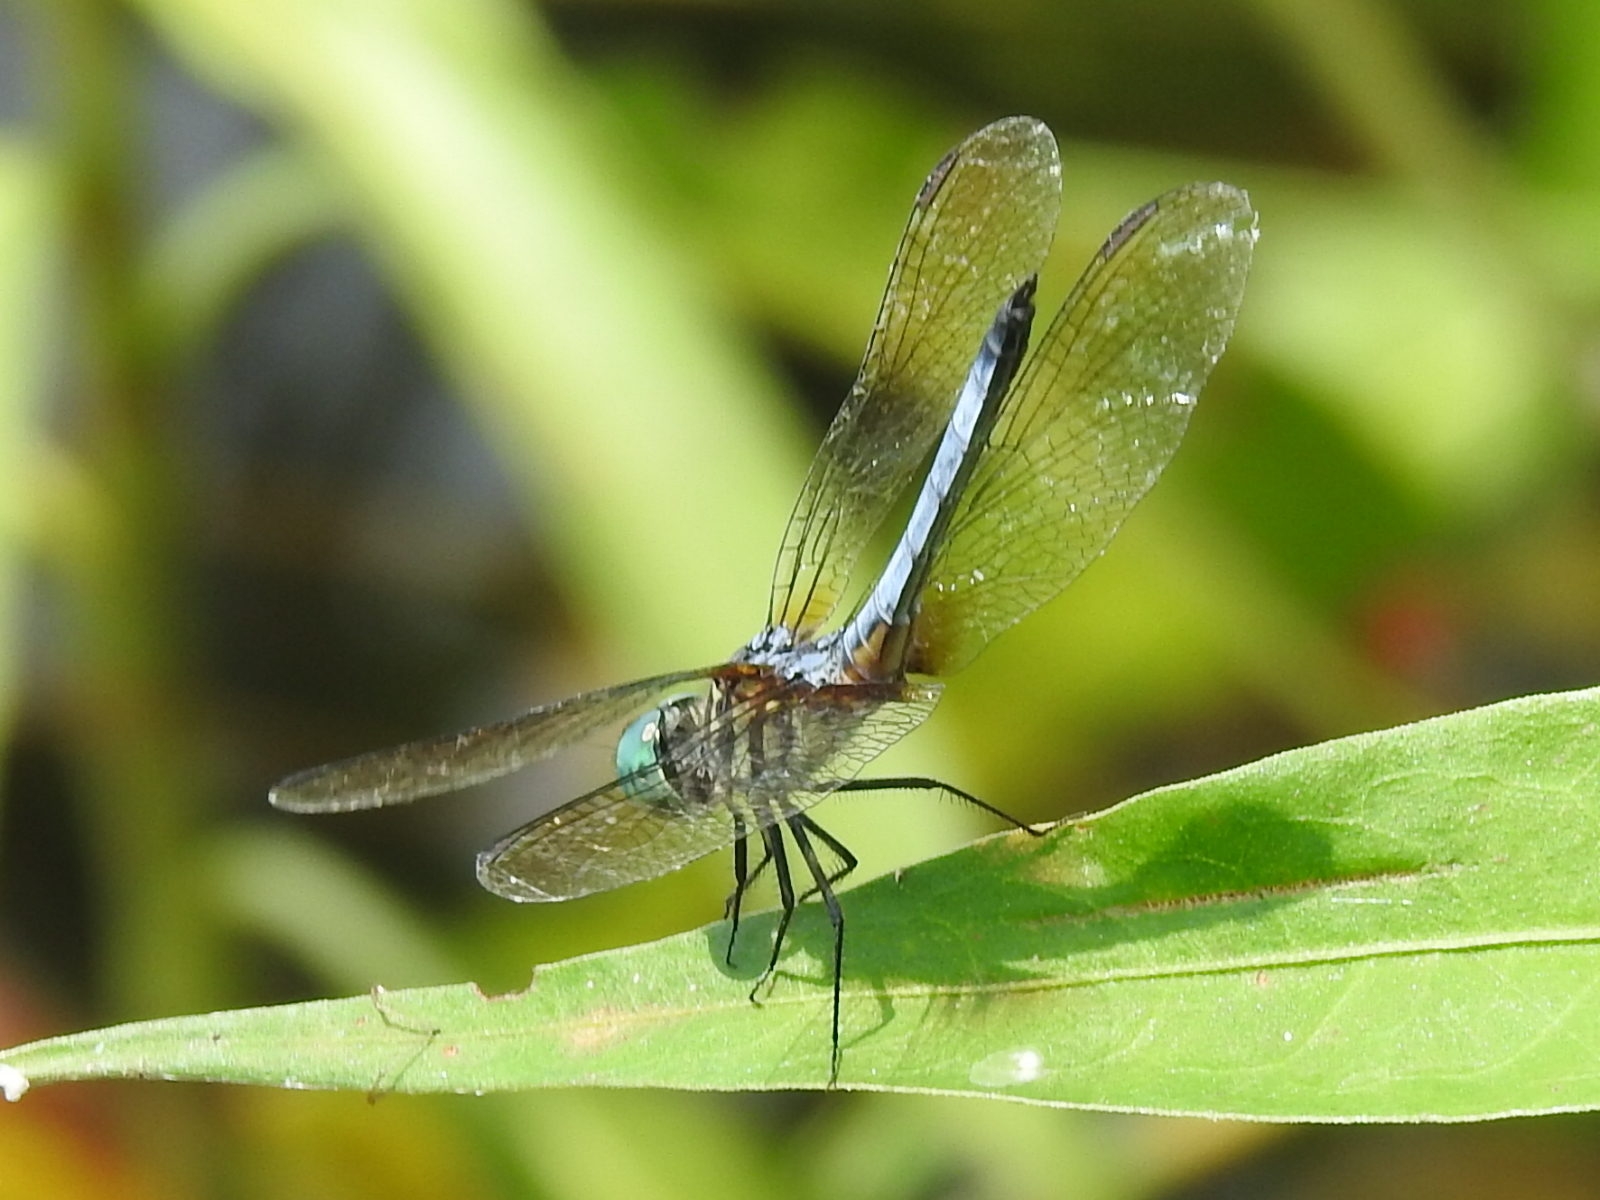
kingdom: Animalia
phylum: Arthropoda
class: Insecta
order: Odonata
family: Libellulidae
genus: Pachydiplax
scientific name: Pachydiplax longipennis
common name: Blue dasher
